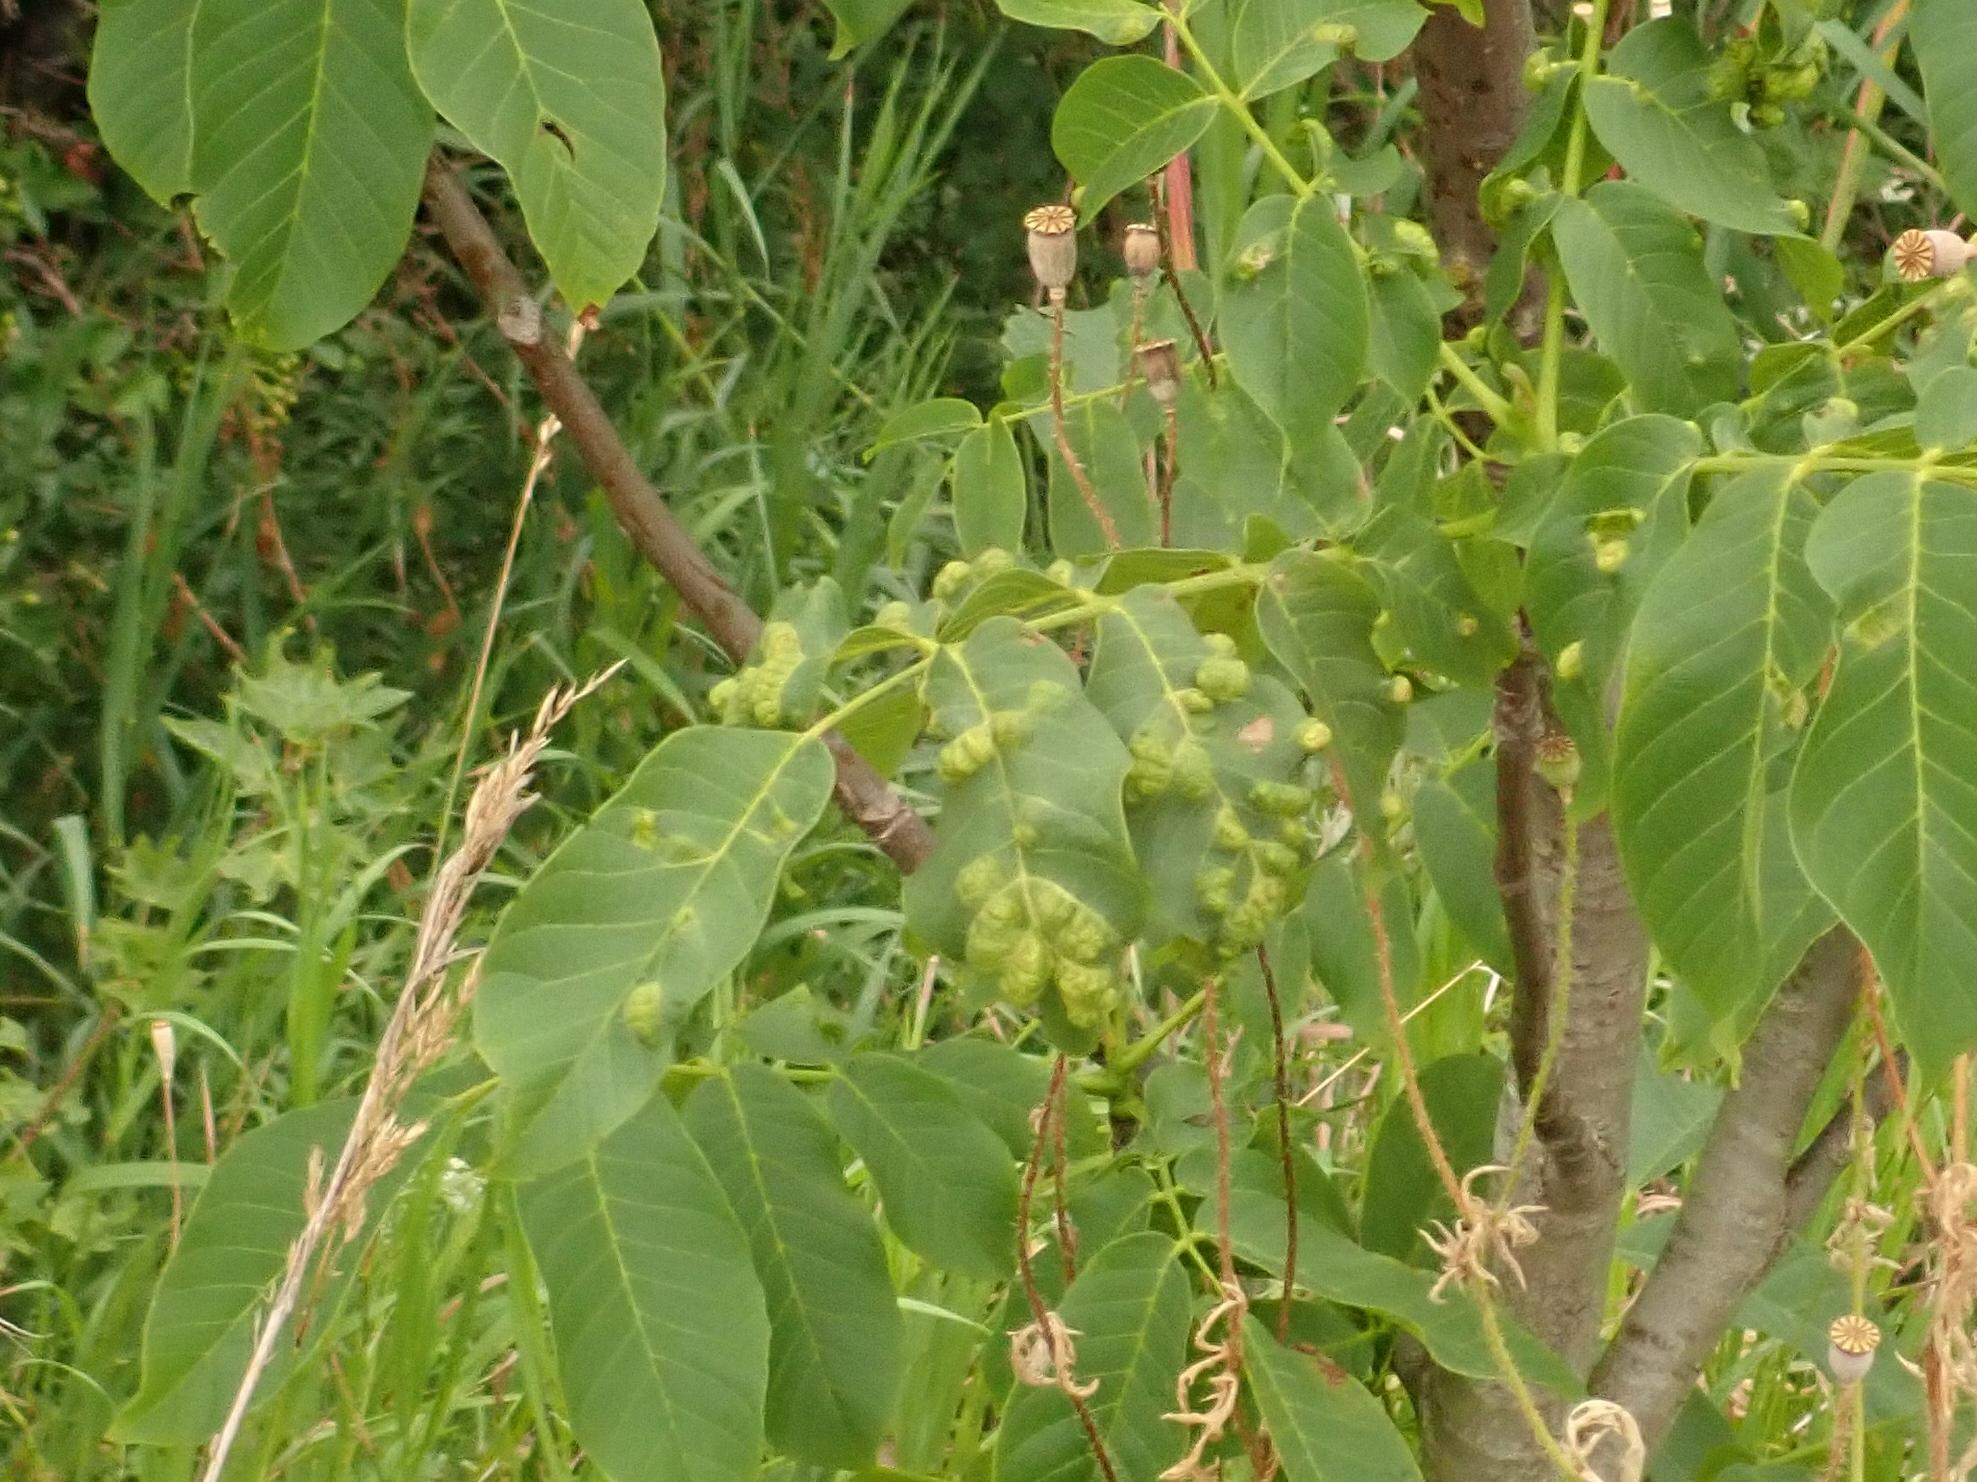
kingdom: Animalia
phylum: Arthropoda
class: Arachnida
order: Trombidiformes
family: Eriophyidae
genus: Aceria
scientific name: Aceria erinea
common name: Persian walnut erineum mite
